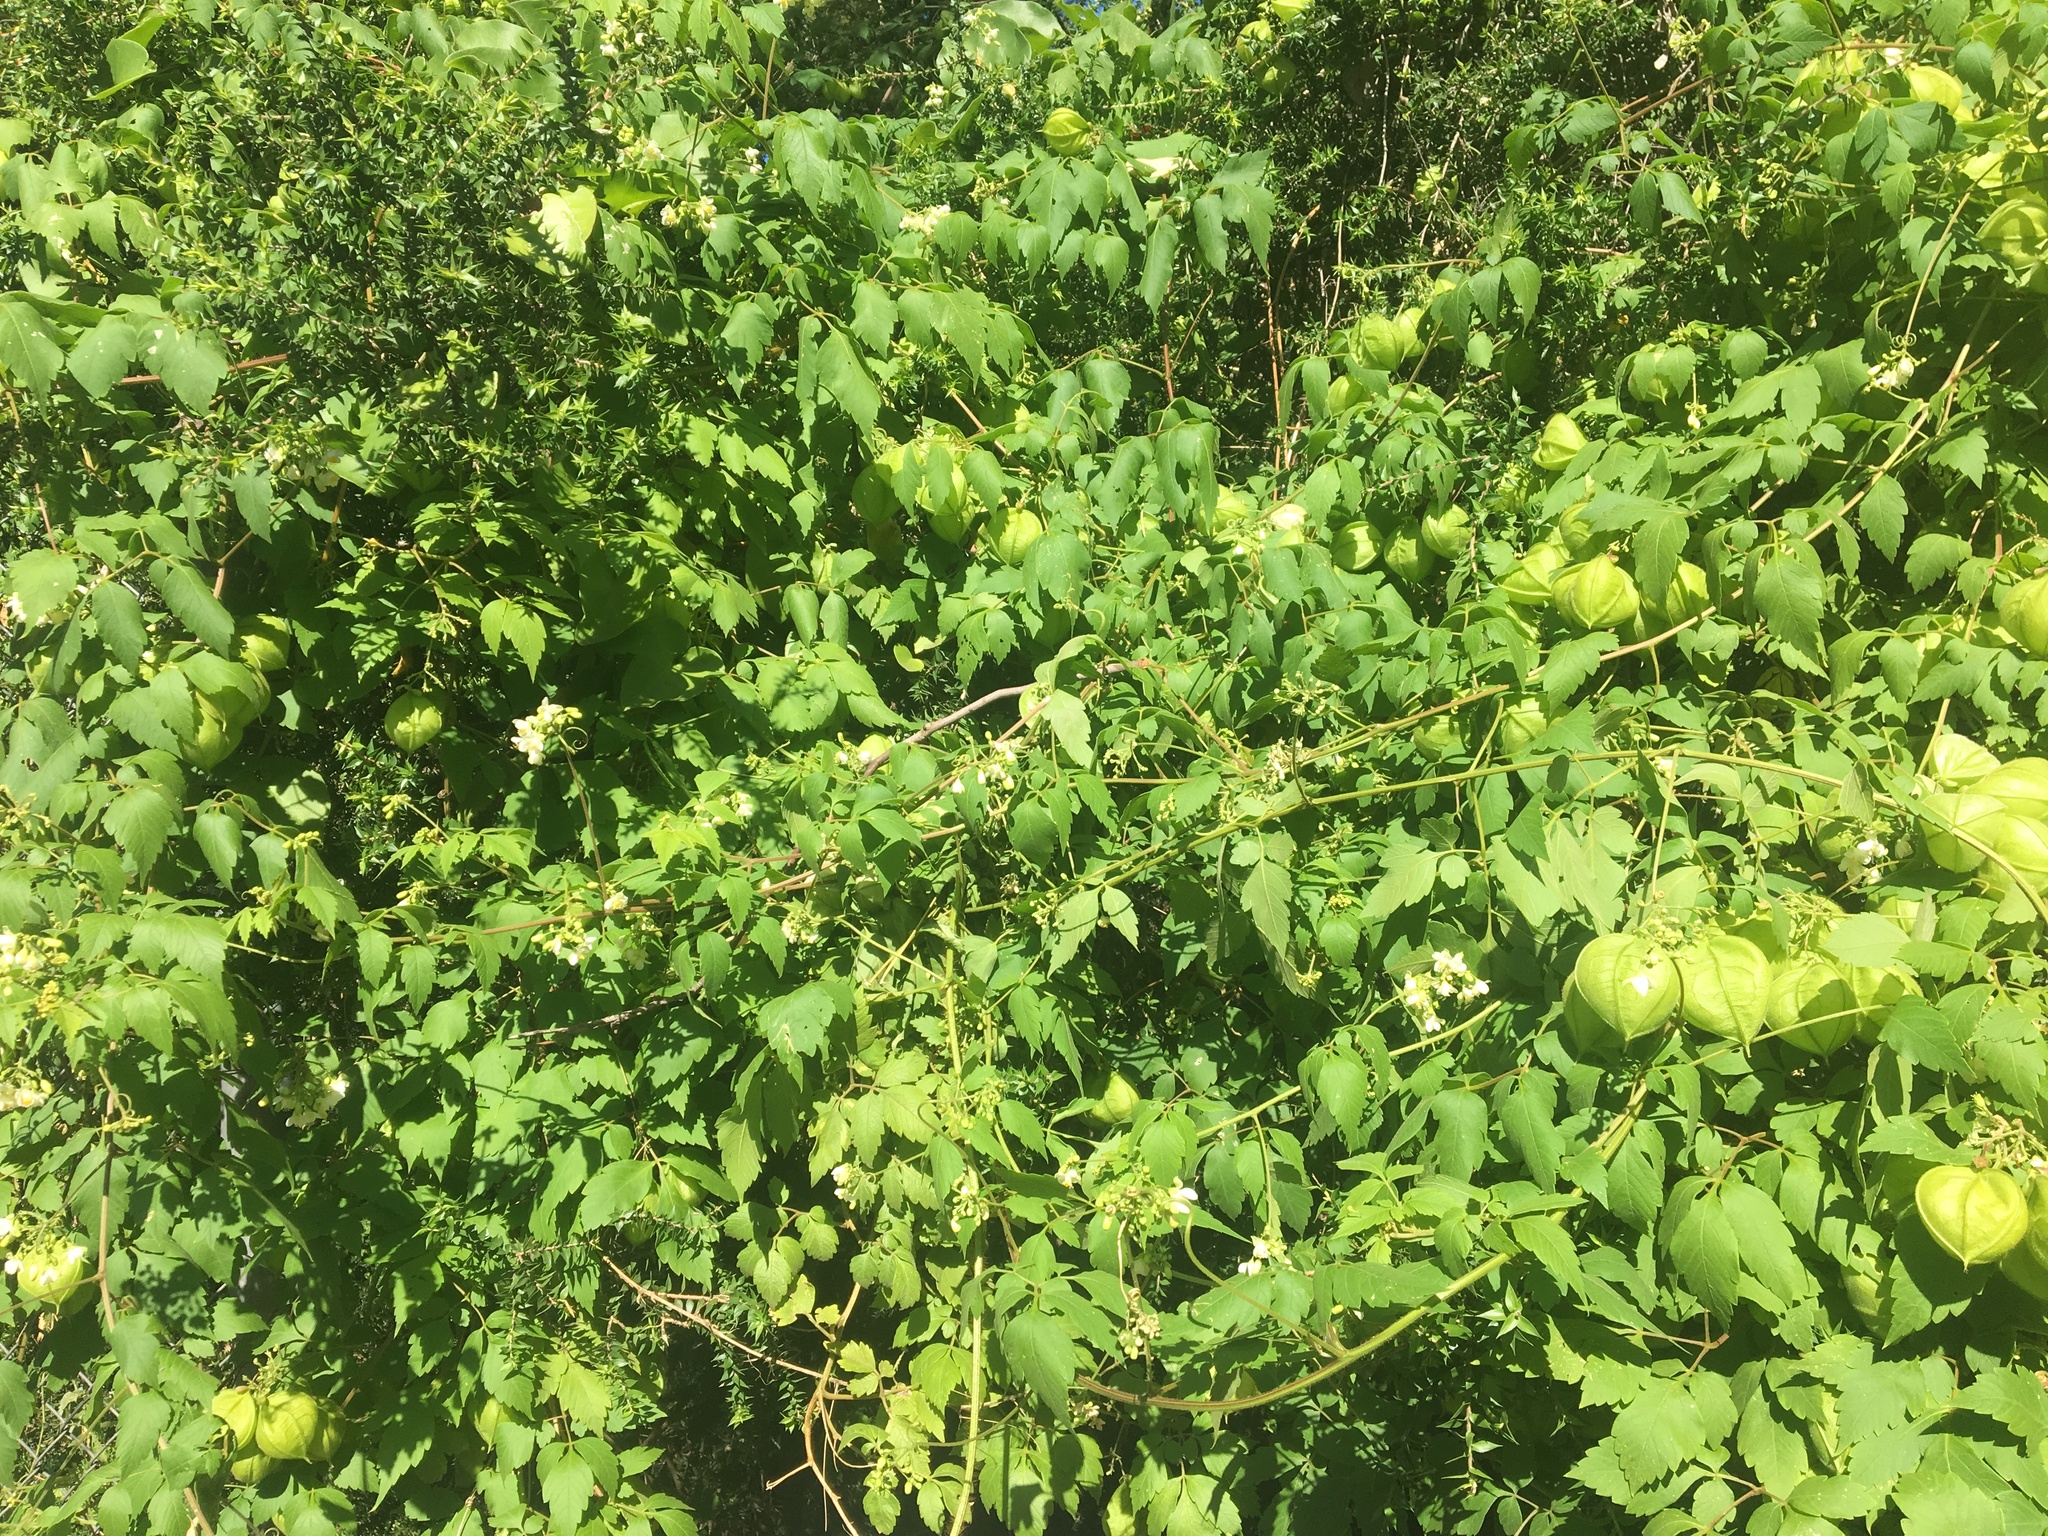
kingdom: Plantae
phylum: Tracheophyta
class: Magnoliopsida
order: Sapindales
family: Sapindaceae
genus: Cardiospermum
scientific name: Cardiospermum grandiflorum
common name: Balloon vine
